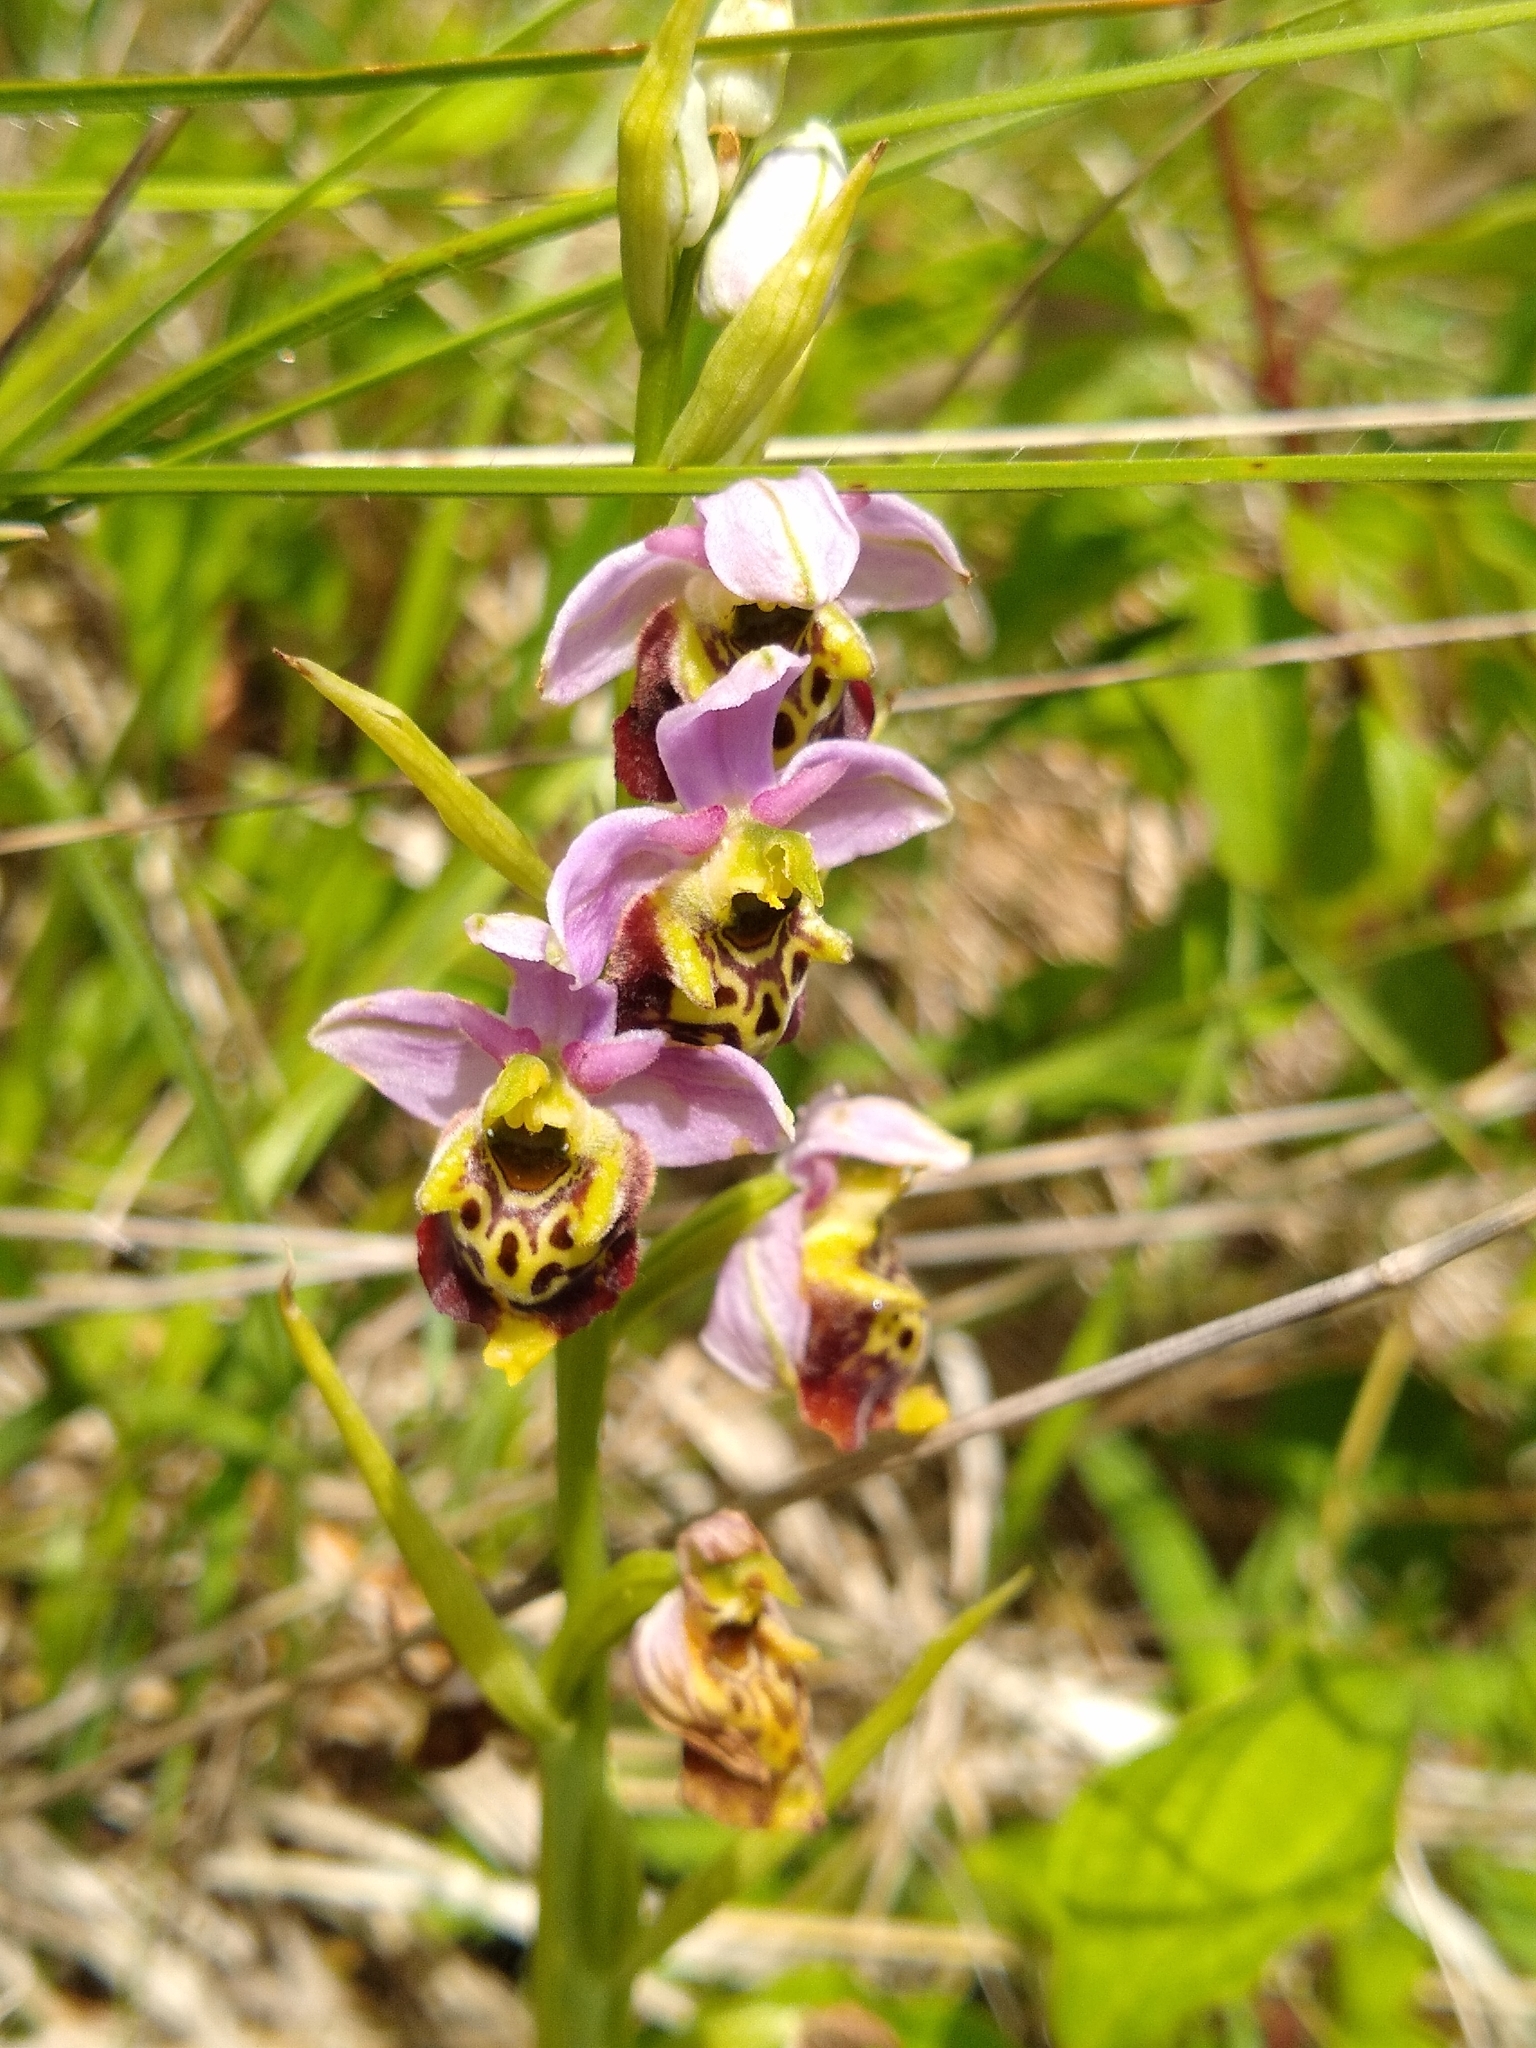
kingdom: Plantae
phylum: Tracheophyta
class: Liliopsida
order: Asparagales
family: Orchidaceae
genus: Ophrys
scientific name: Ophrys holosericea
